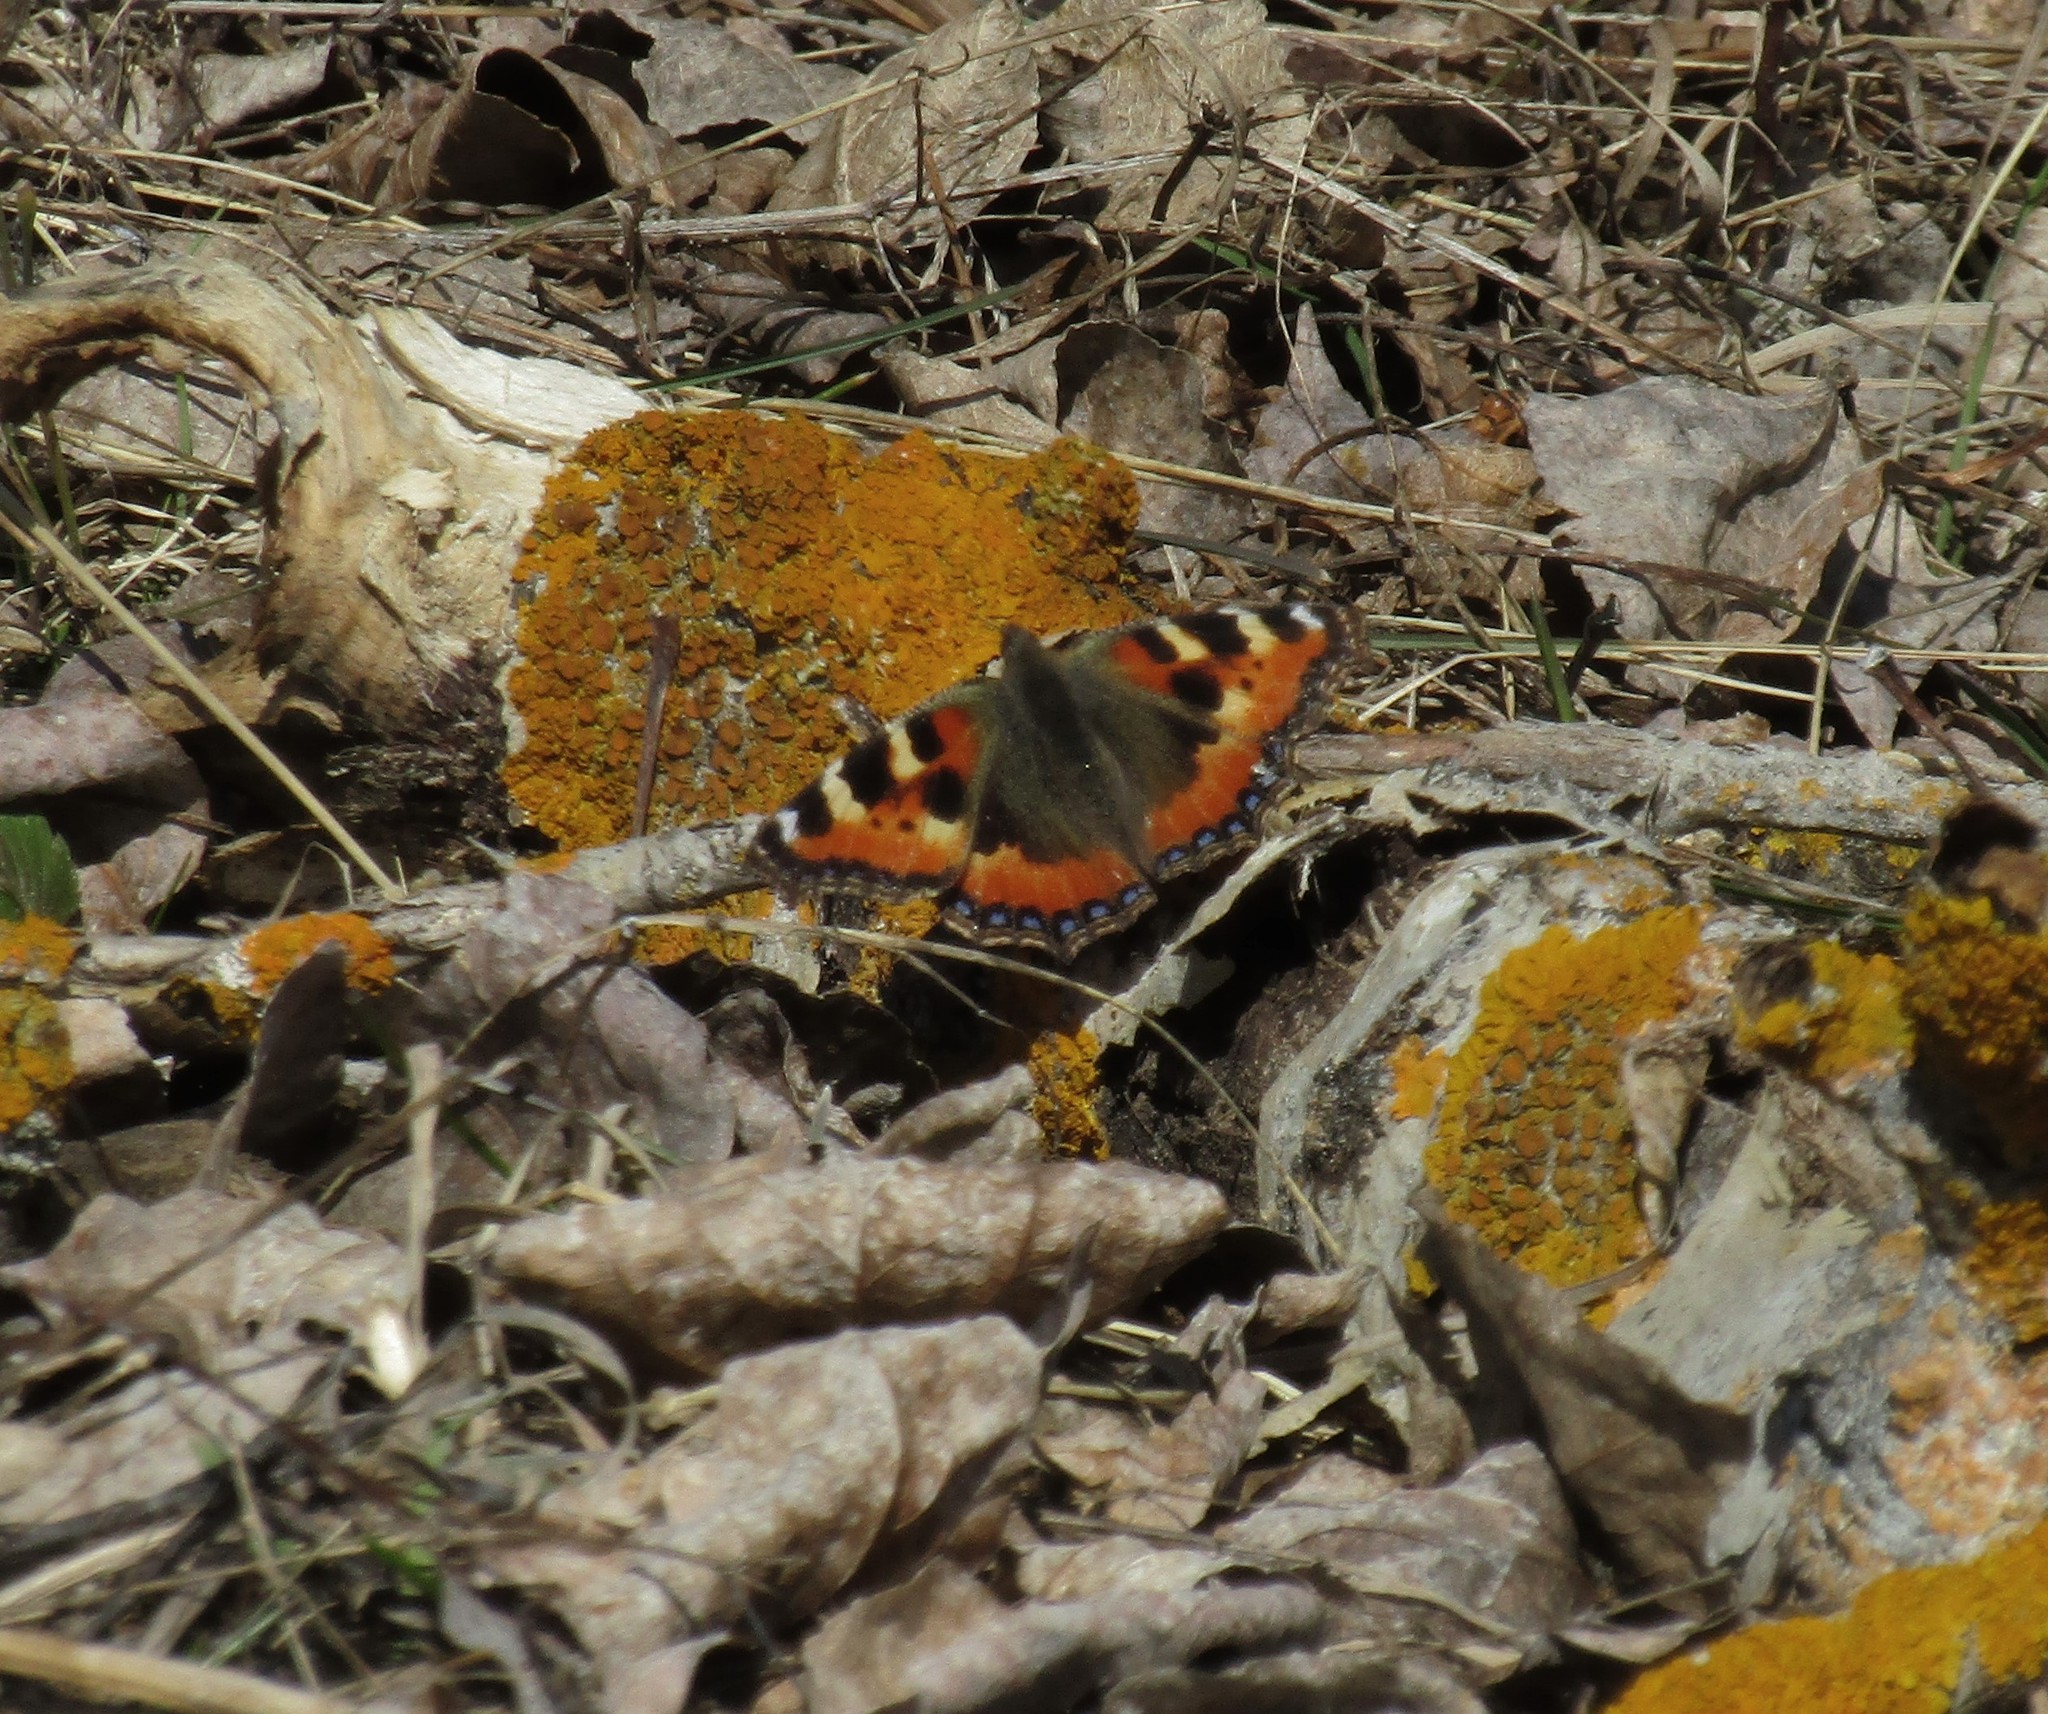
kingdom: Animalia
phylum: Arthropoda
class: Insecta
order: Lepidoptera
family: Nymphalidae
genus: Aglais
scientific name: Aglais urticae
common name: Small tortoiseshell
